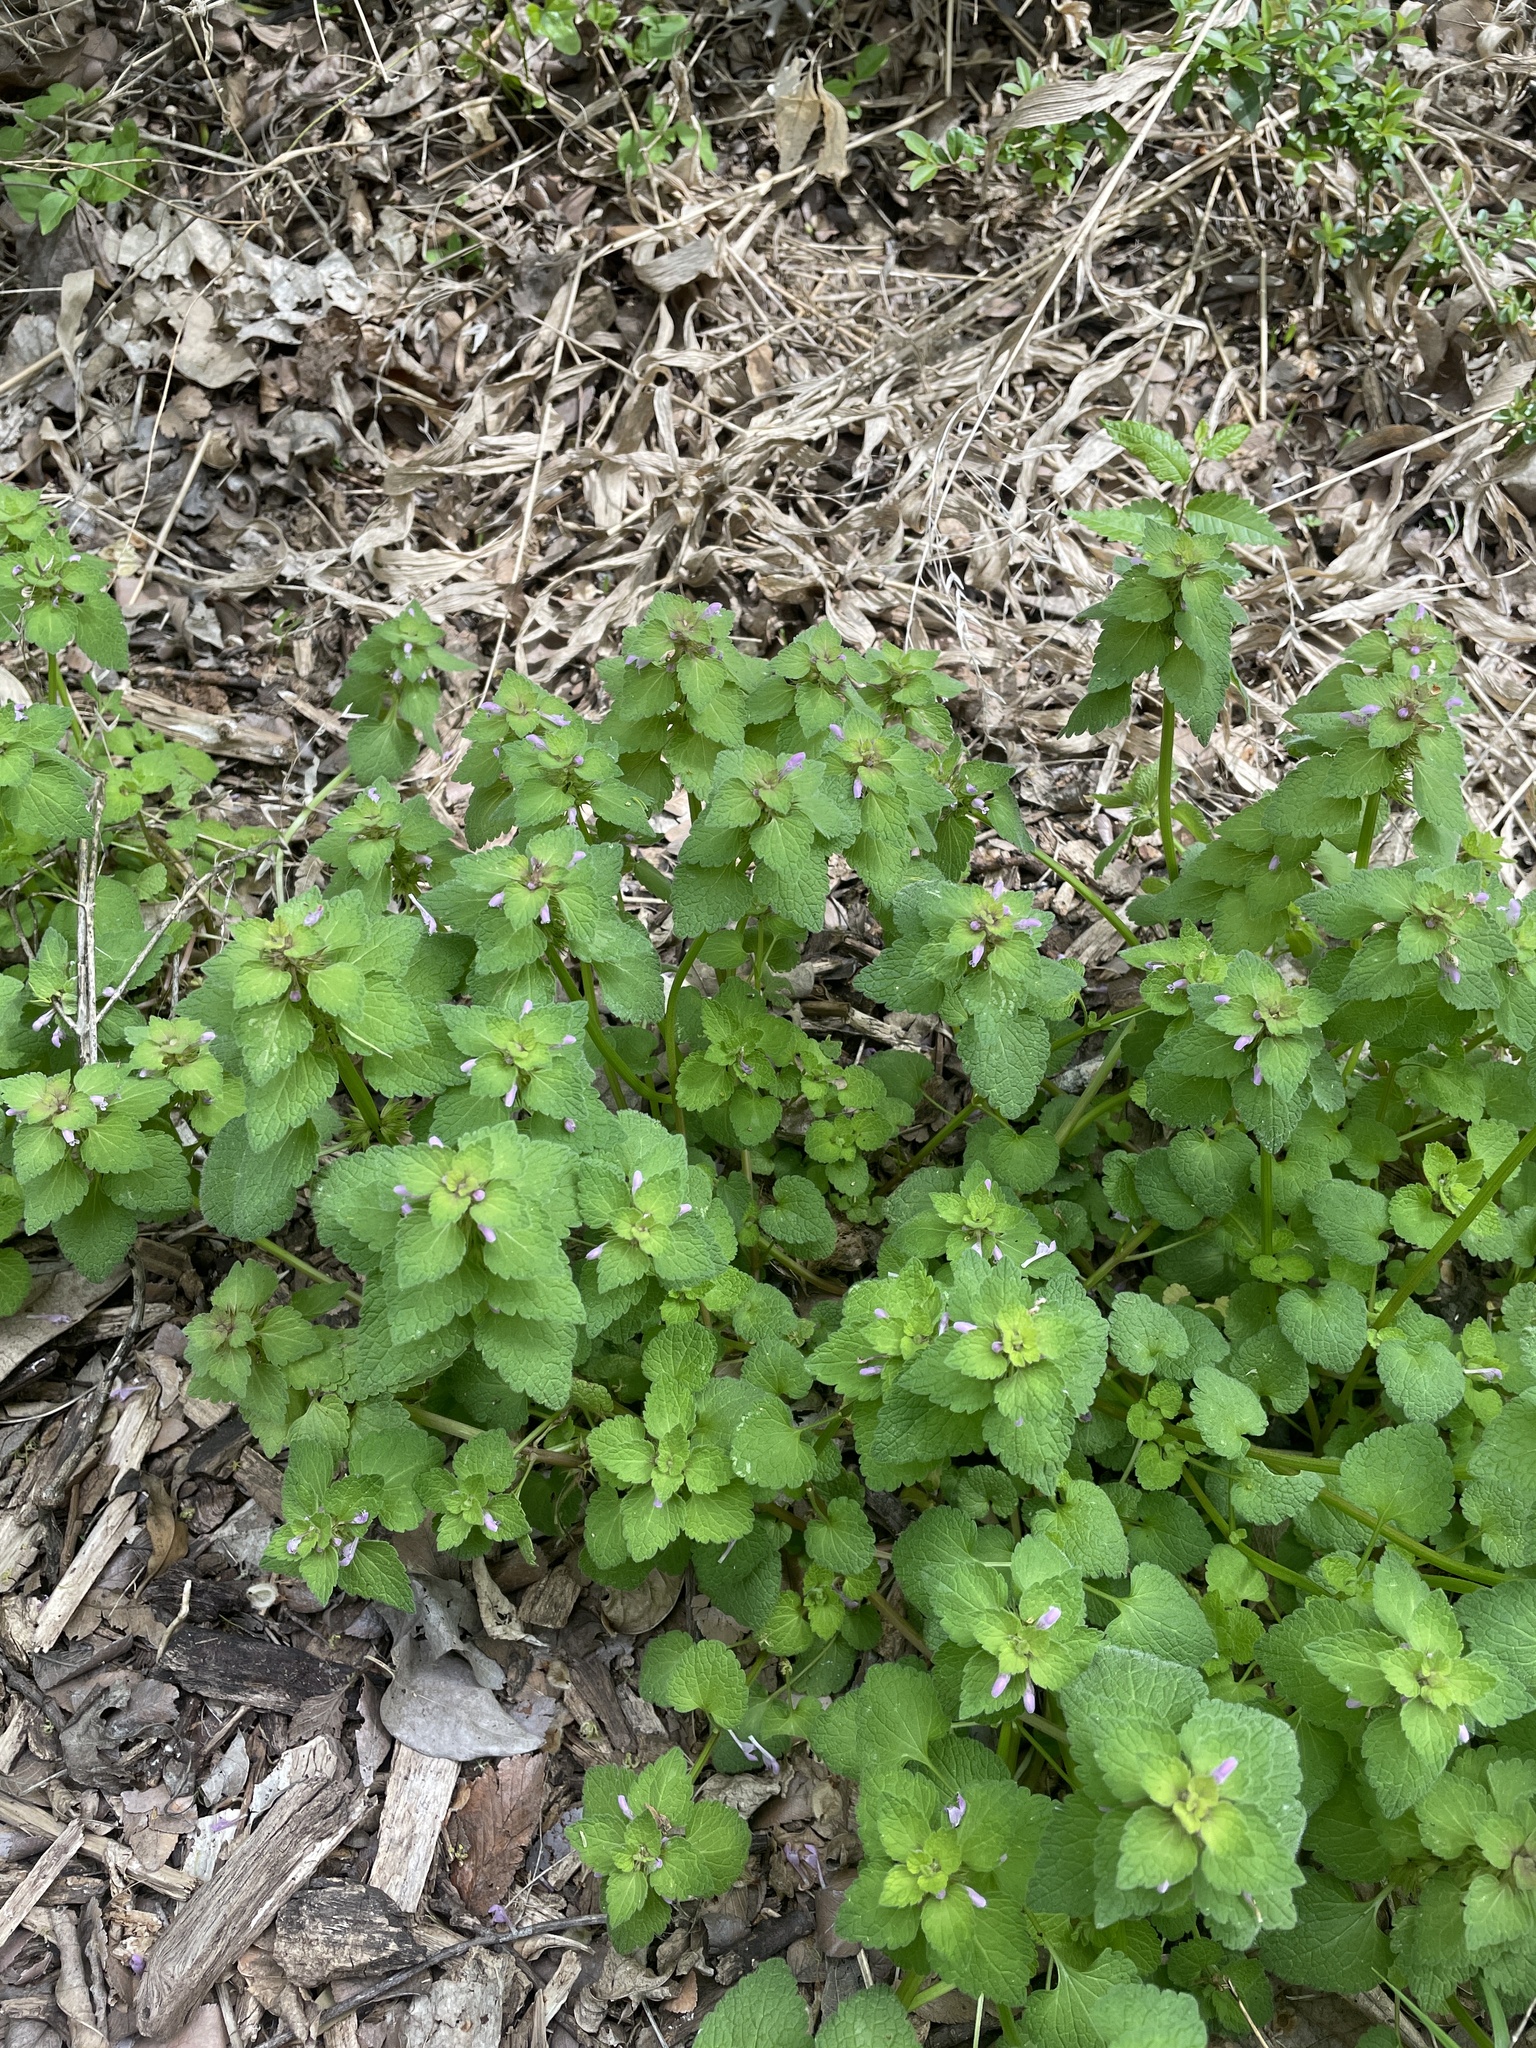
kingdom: Plantae
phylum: Tracheophyta
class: Magnoliopsida
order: Lamiales
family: Lamiaceae
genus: Lamium
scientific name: Lamium purpureum
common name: Red dead-nettle
